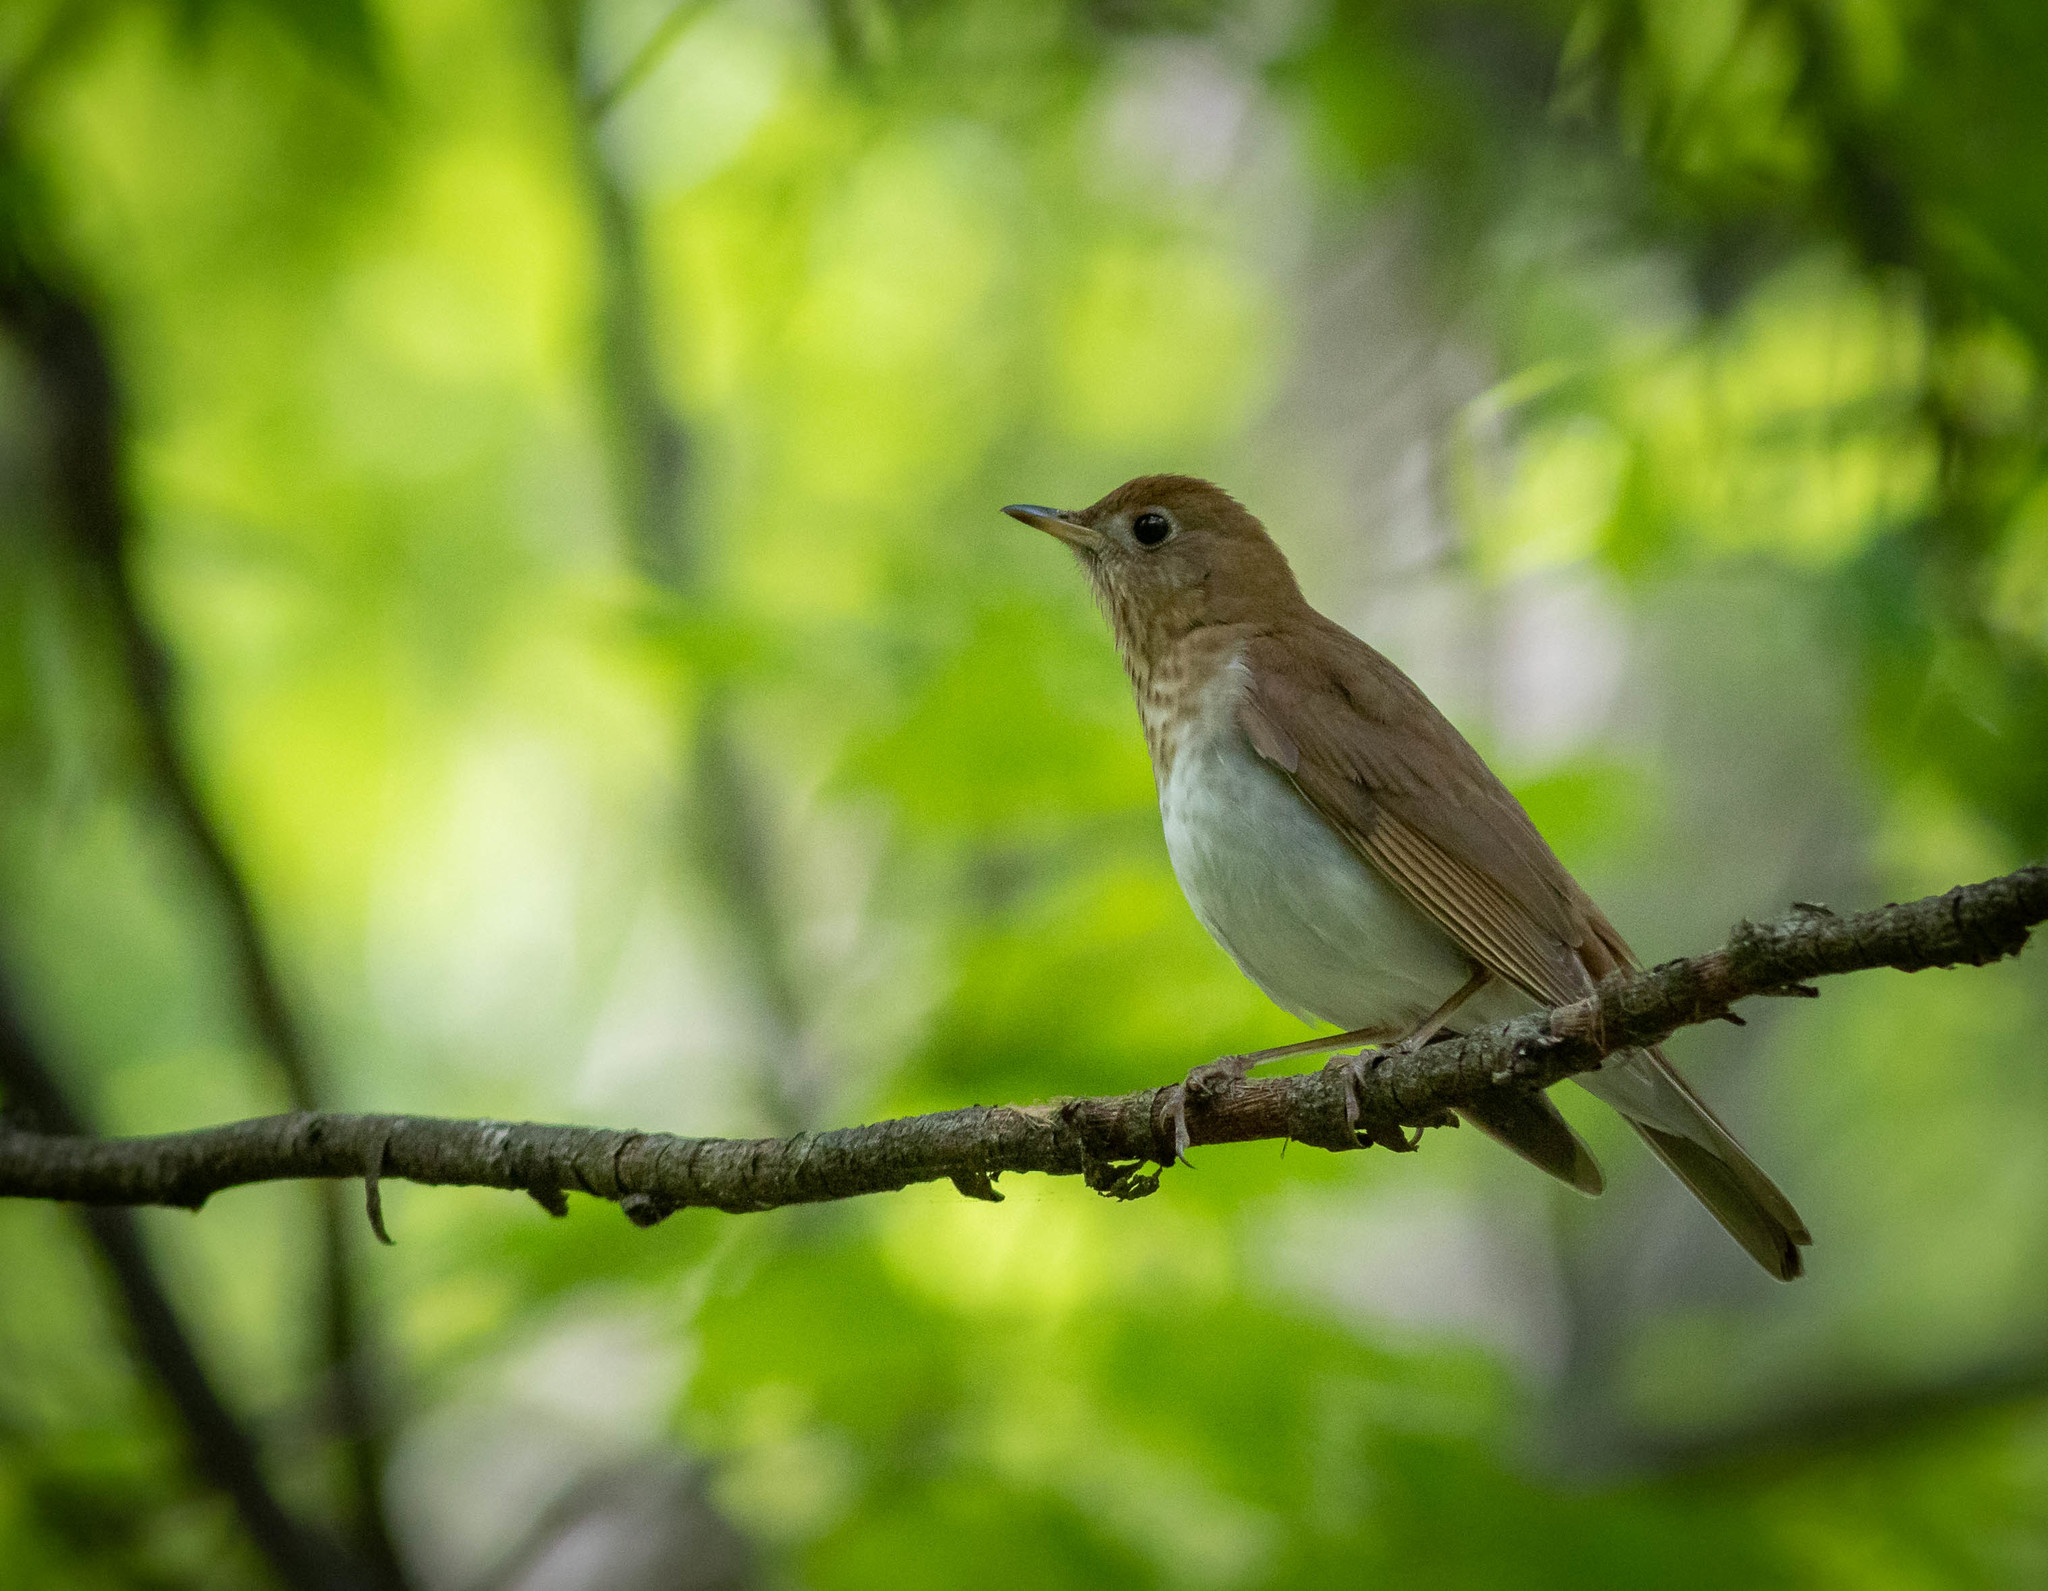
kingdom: Animalia
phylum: Chordata
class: Aves
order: Passeriformes
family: Turdidae
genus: Catharus
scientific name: Catharus fuscescens
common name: Veery
